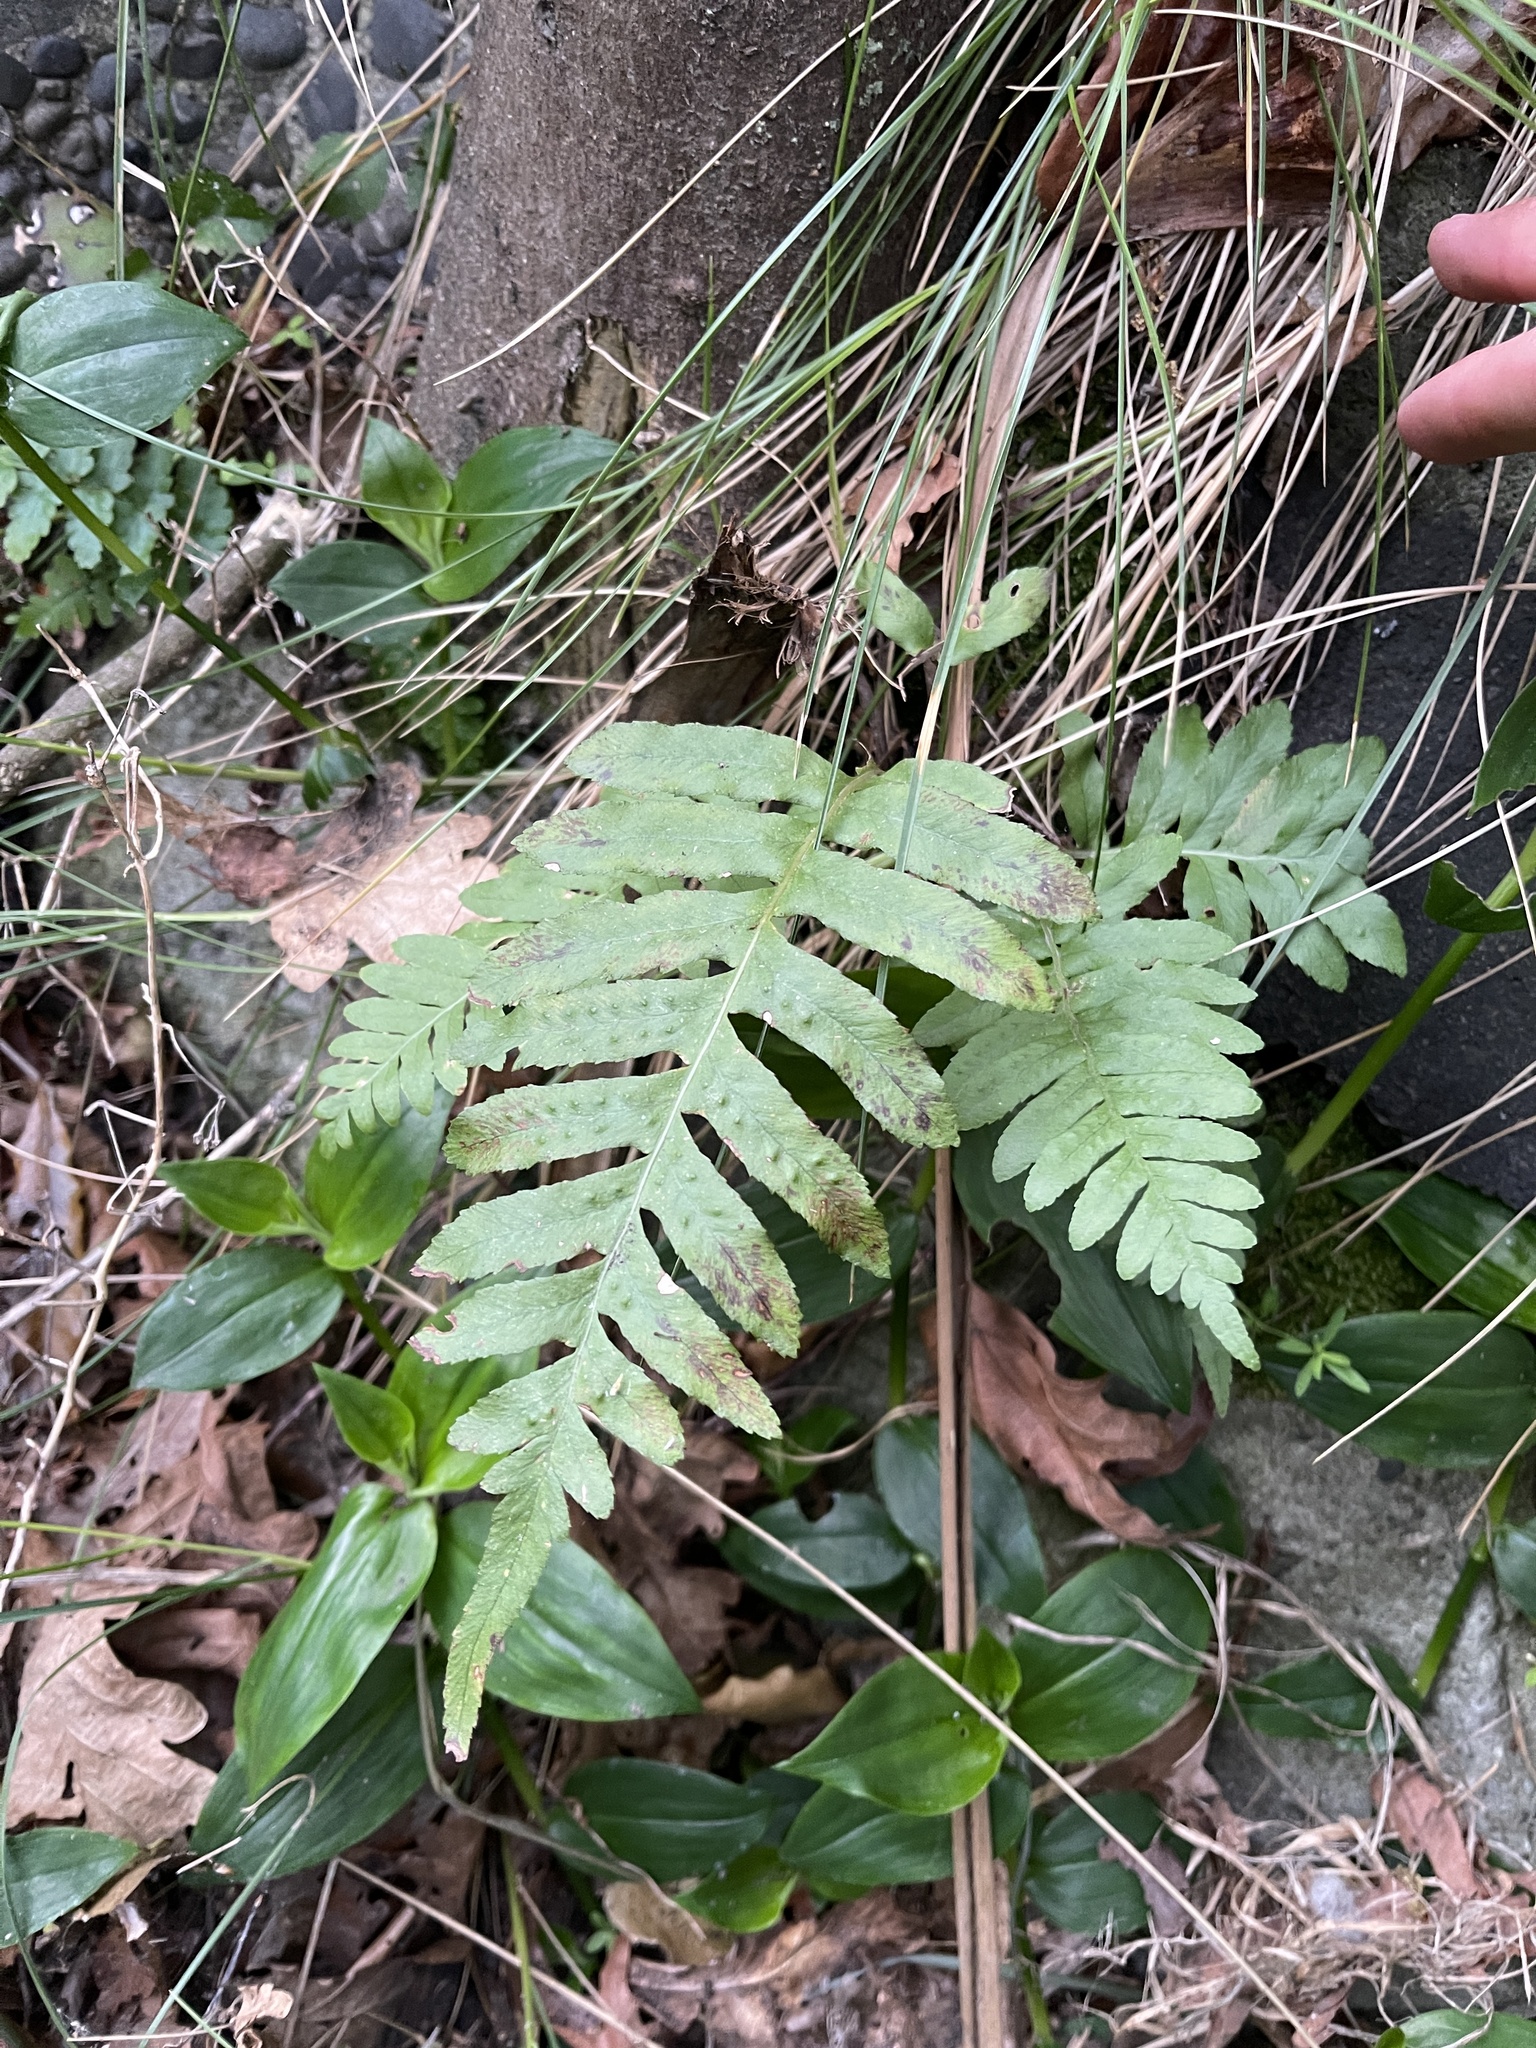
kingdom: Plantae
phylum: Tracheophyta
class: Polypodiopsida
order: Polypodiales
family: Polypodiaceae
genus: Polypodium
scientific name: Polypodium vulgare
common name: Common polypody
